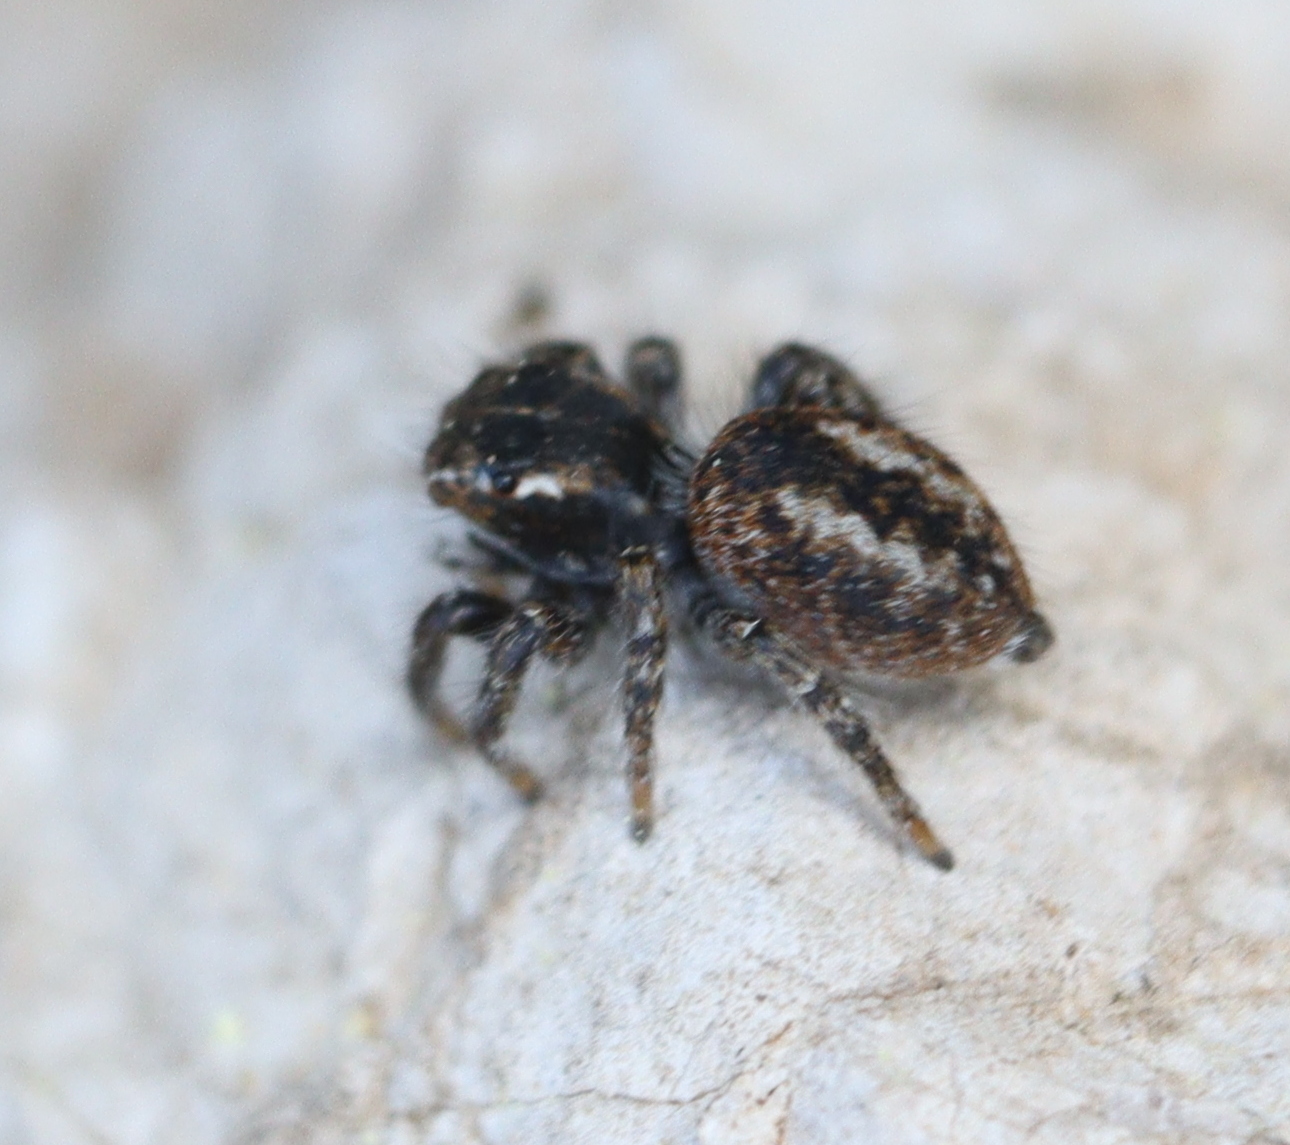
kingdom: Animalia
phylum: Arthropoda
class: Arachnida
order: Araneae
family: Salticidae
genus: Philaeus
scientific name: Philaeus chrysops
